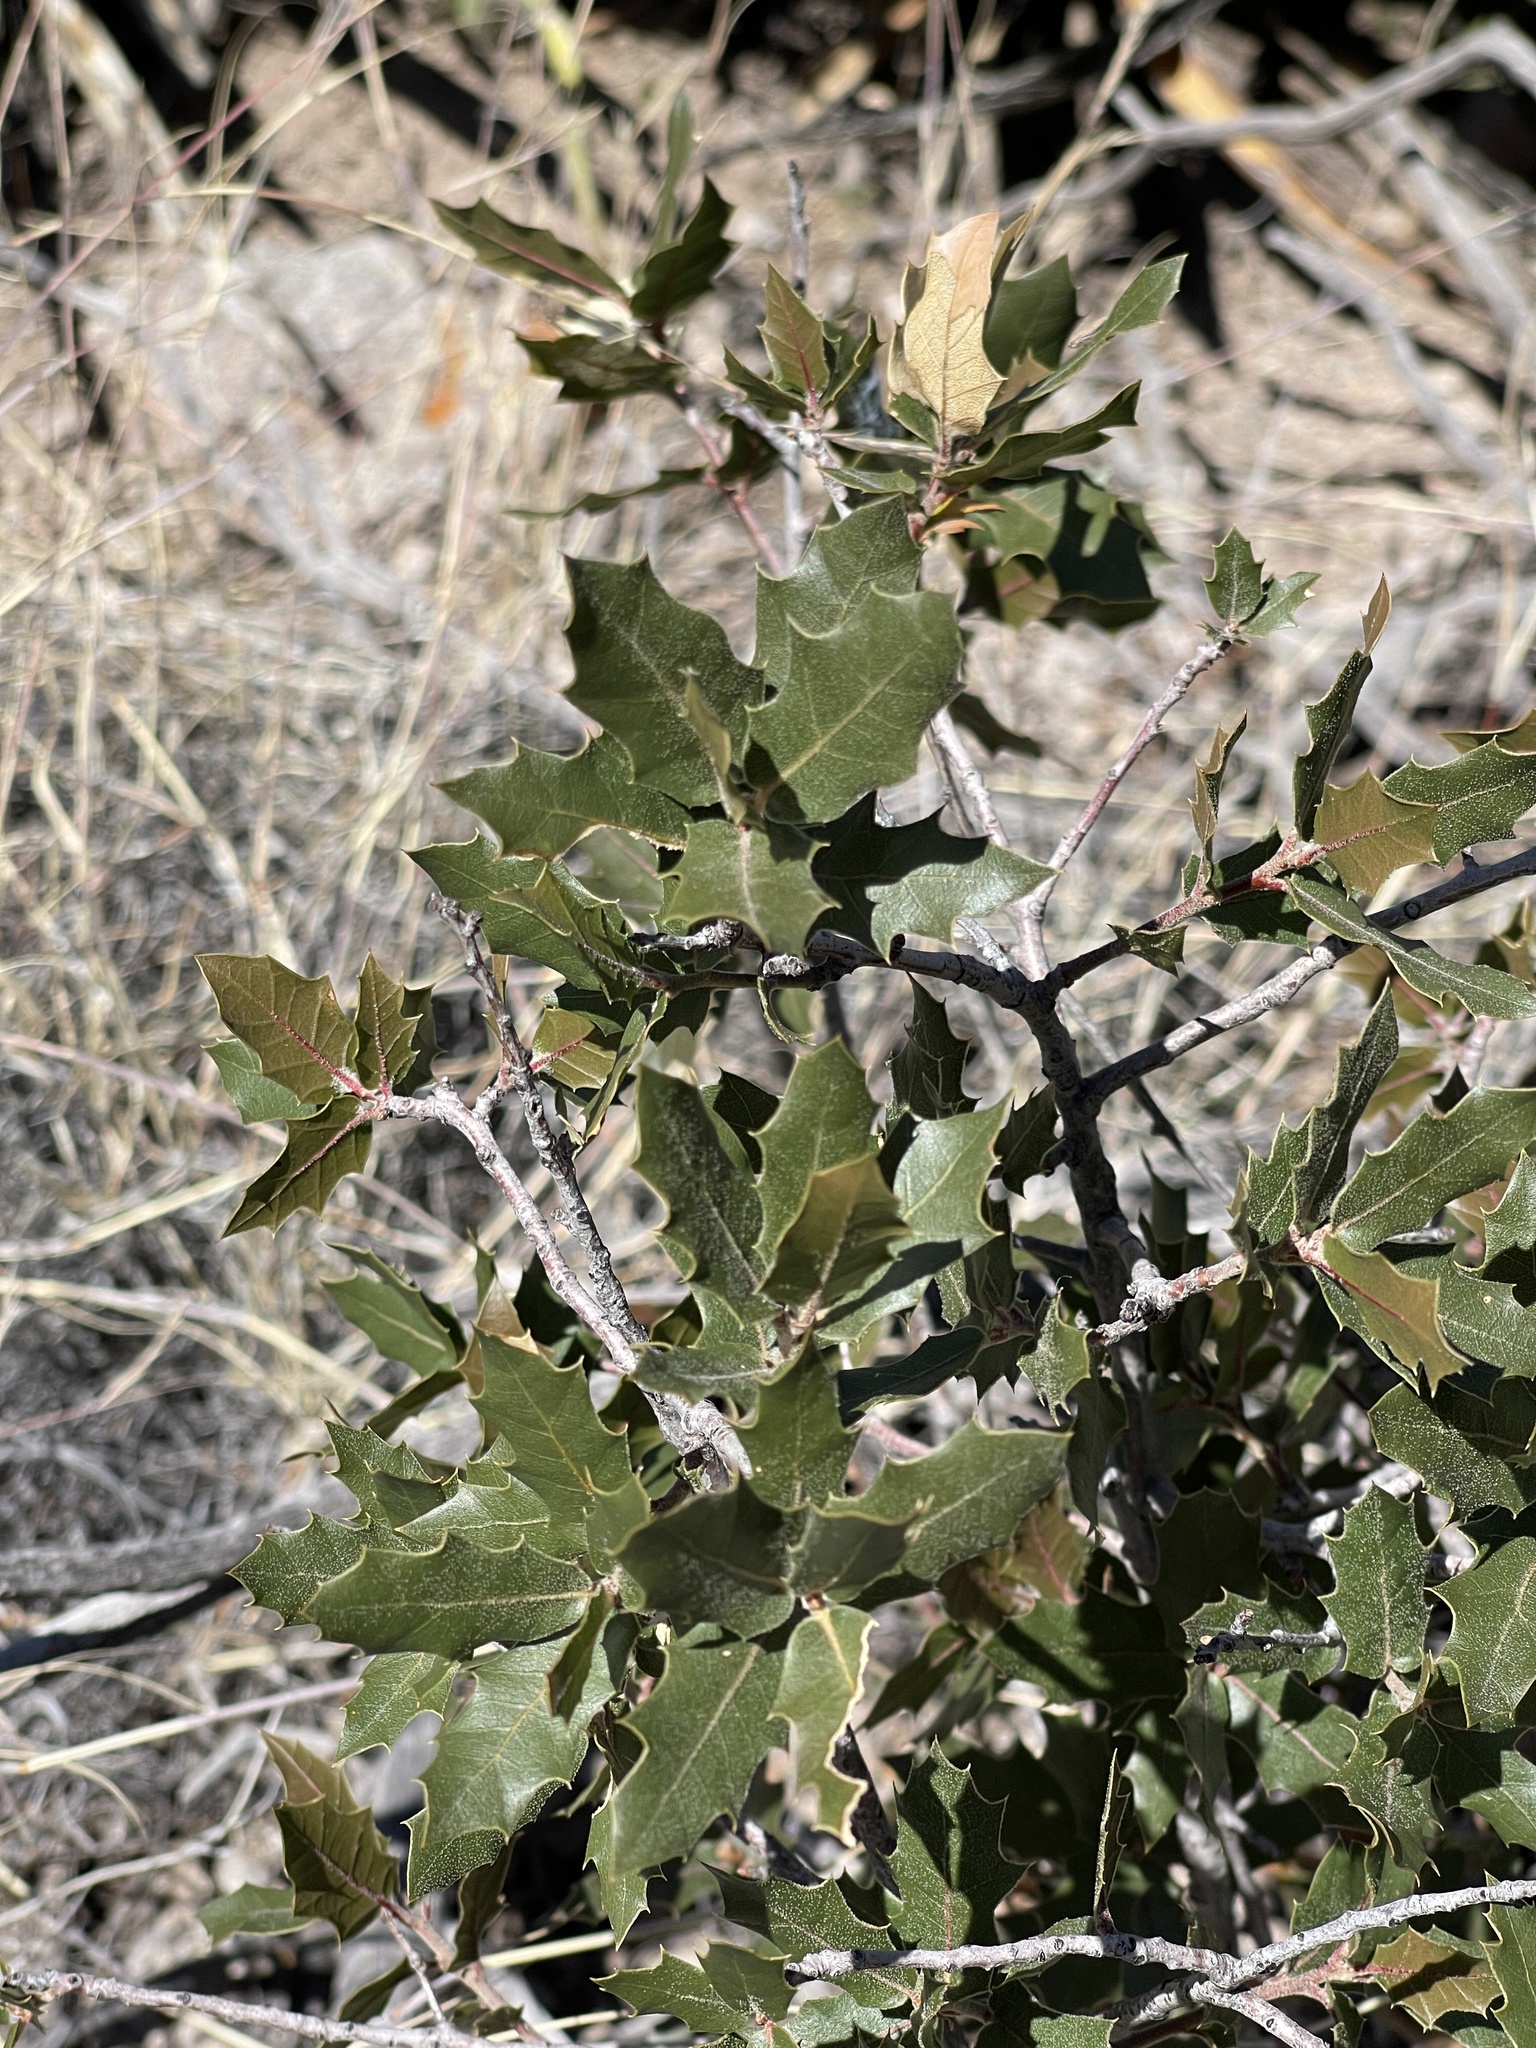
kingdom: Plantae
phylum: Tracheophyta
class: Magnoliopsida
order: Fagales
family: Fagaceae
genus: Quercus
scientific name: Quercus emoryi
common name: Emory oak
